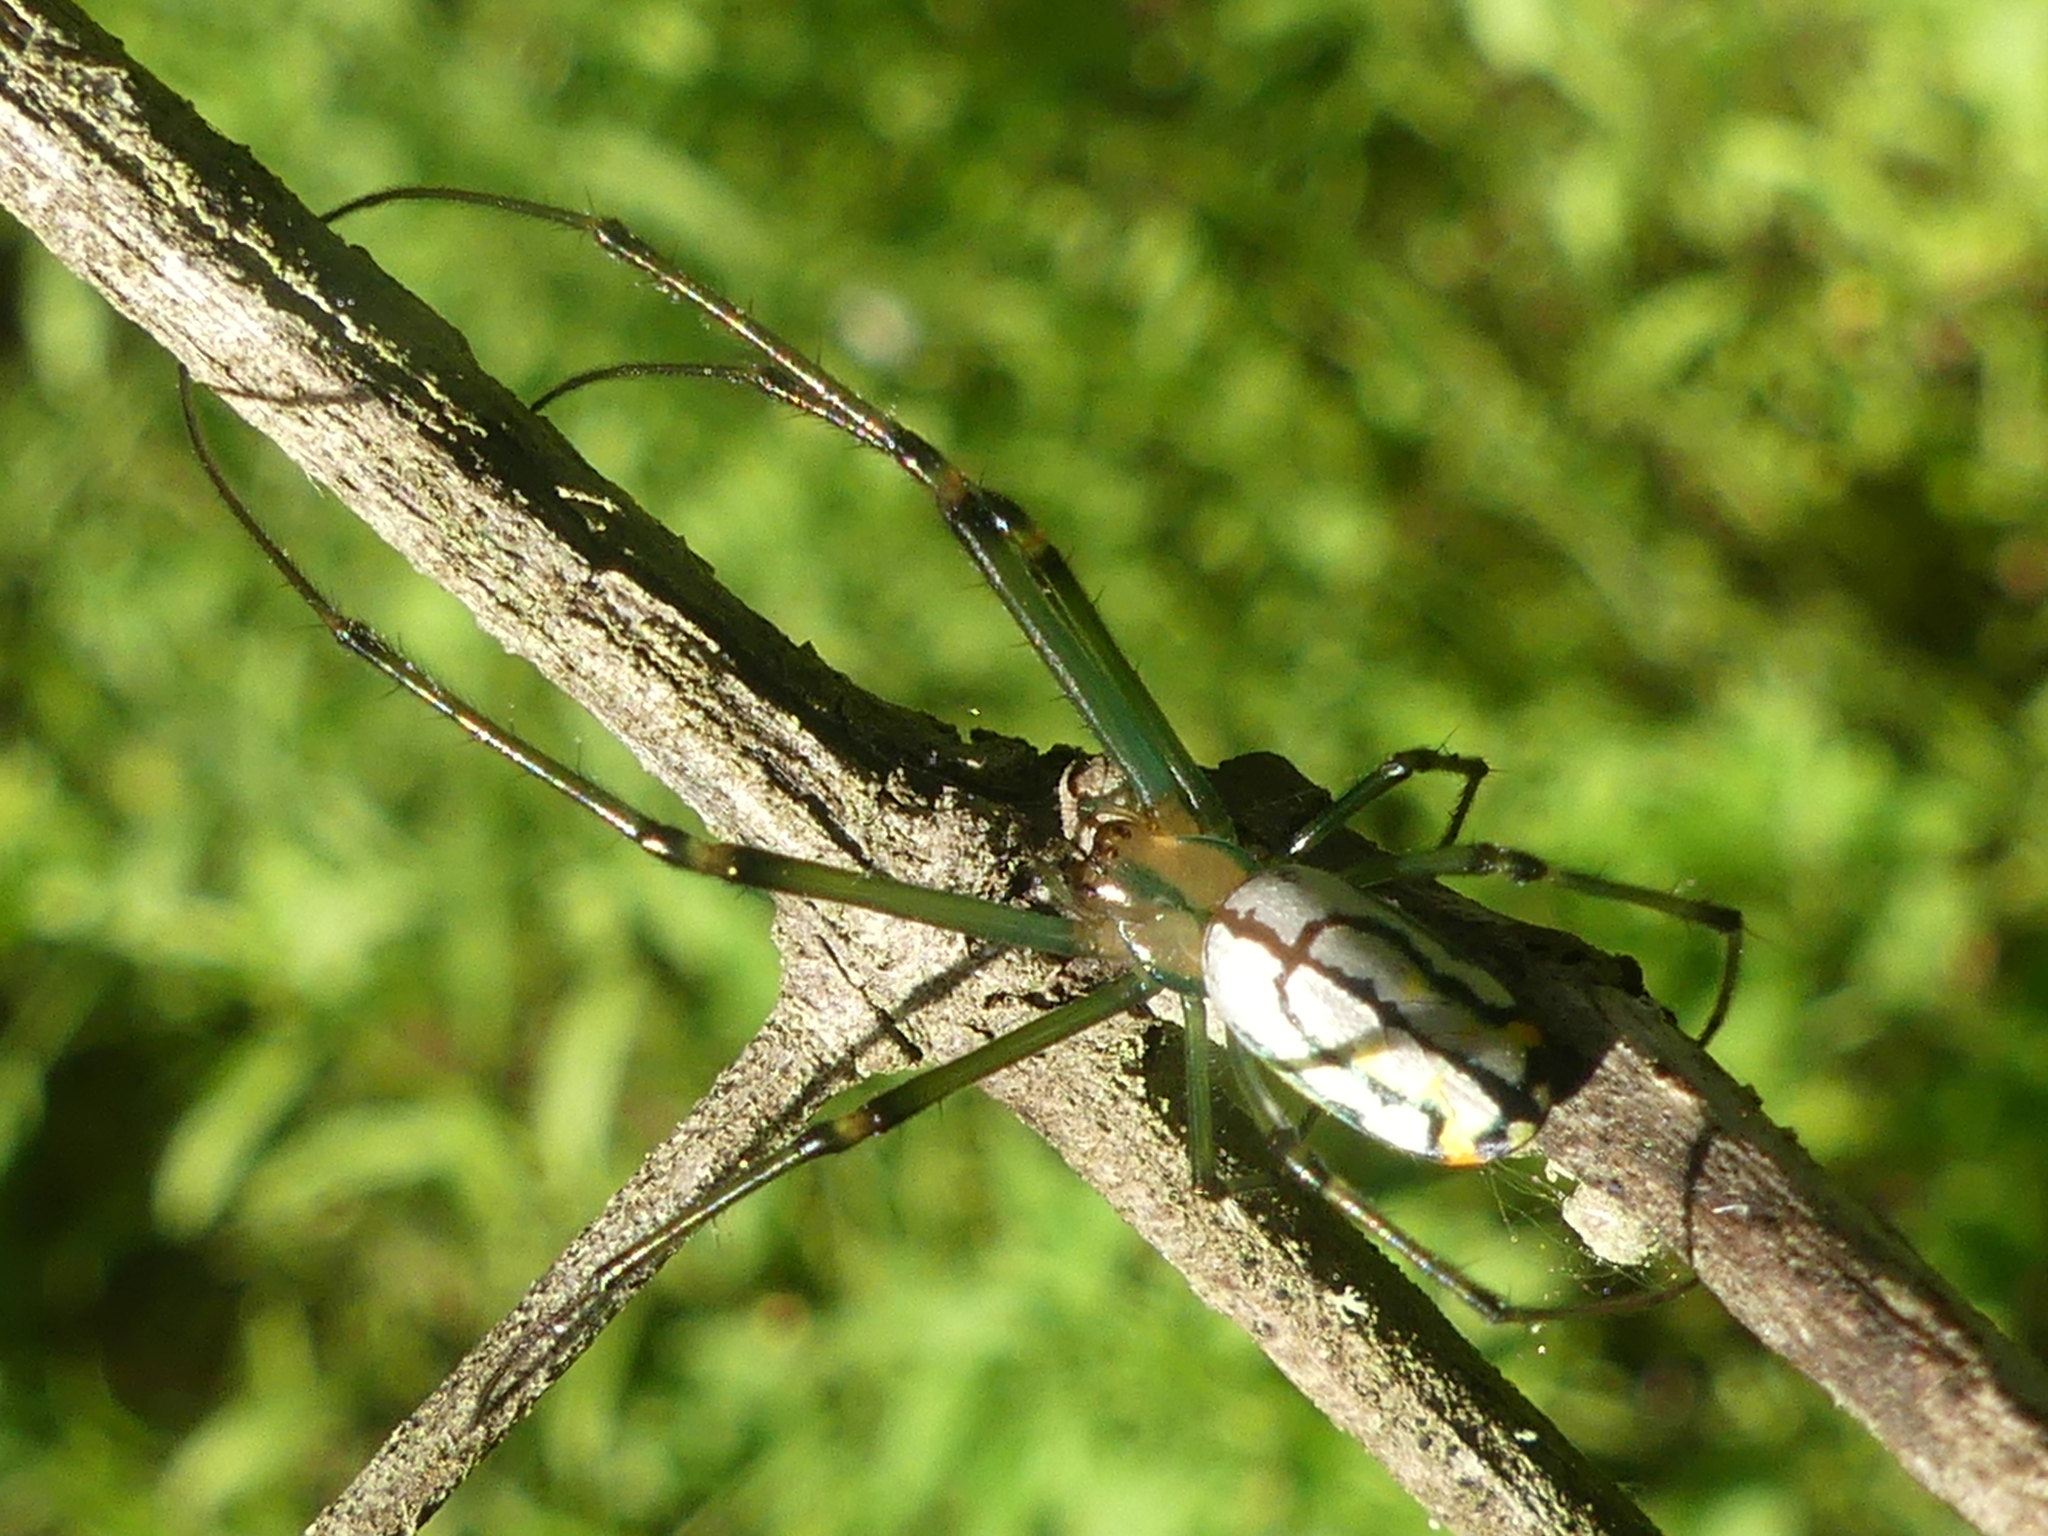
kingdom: Animalia
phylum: Arthropoda
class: Arachnida
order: Araneae
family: Tetragnathidae
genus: Leucauge
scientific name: Leucauge argyrobapta
